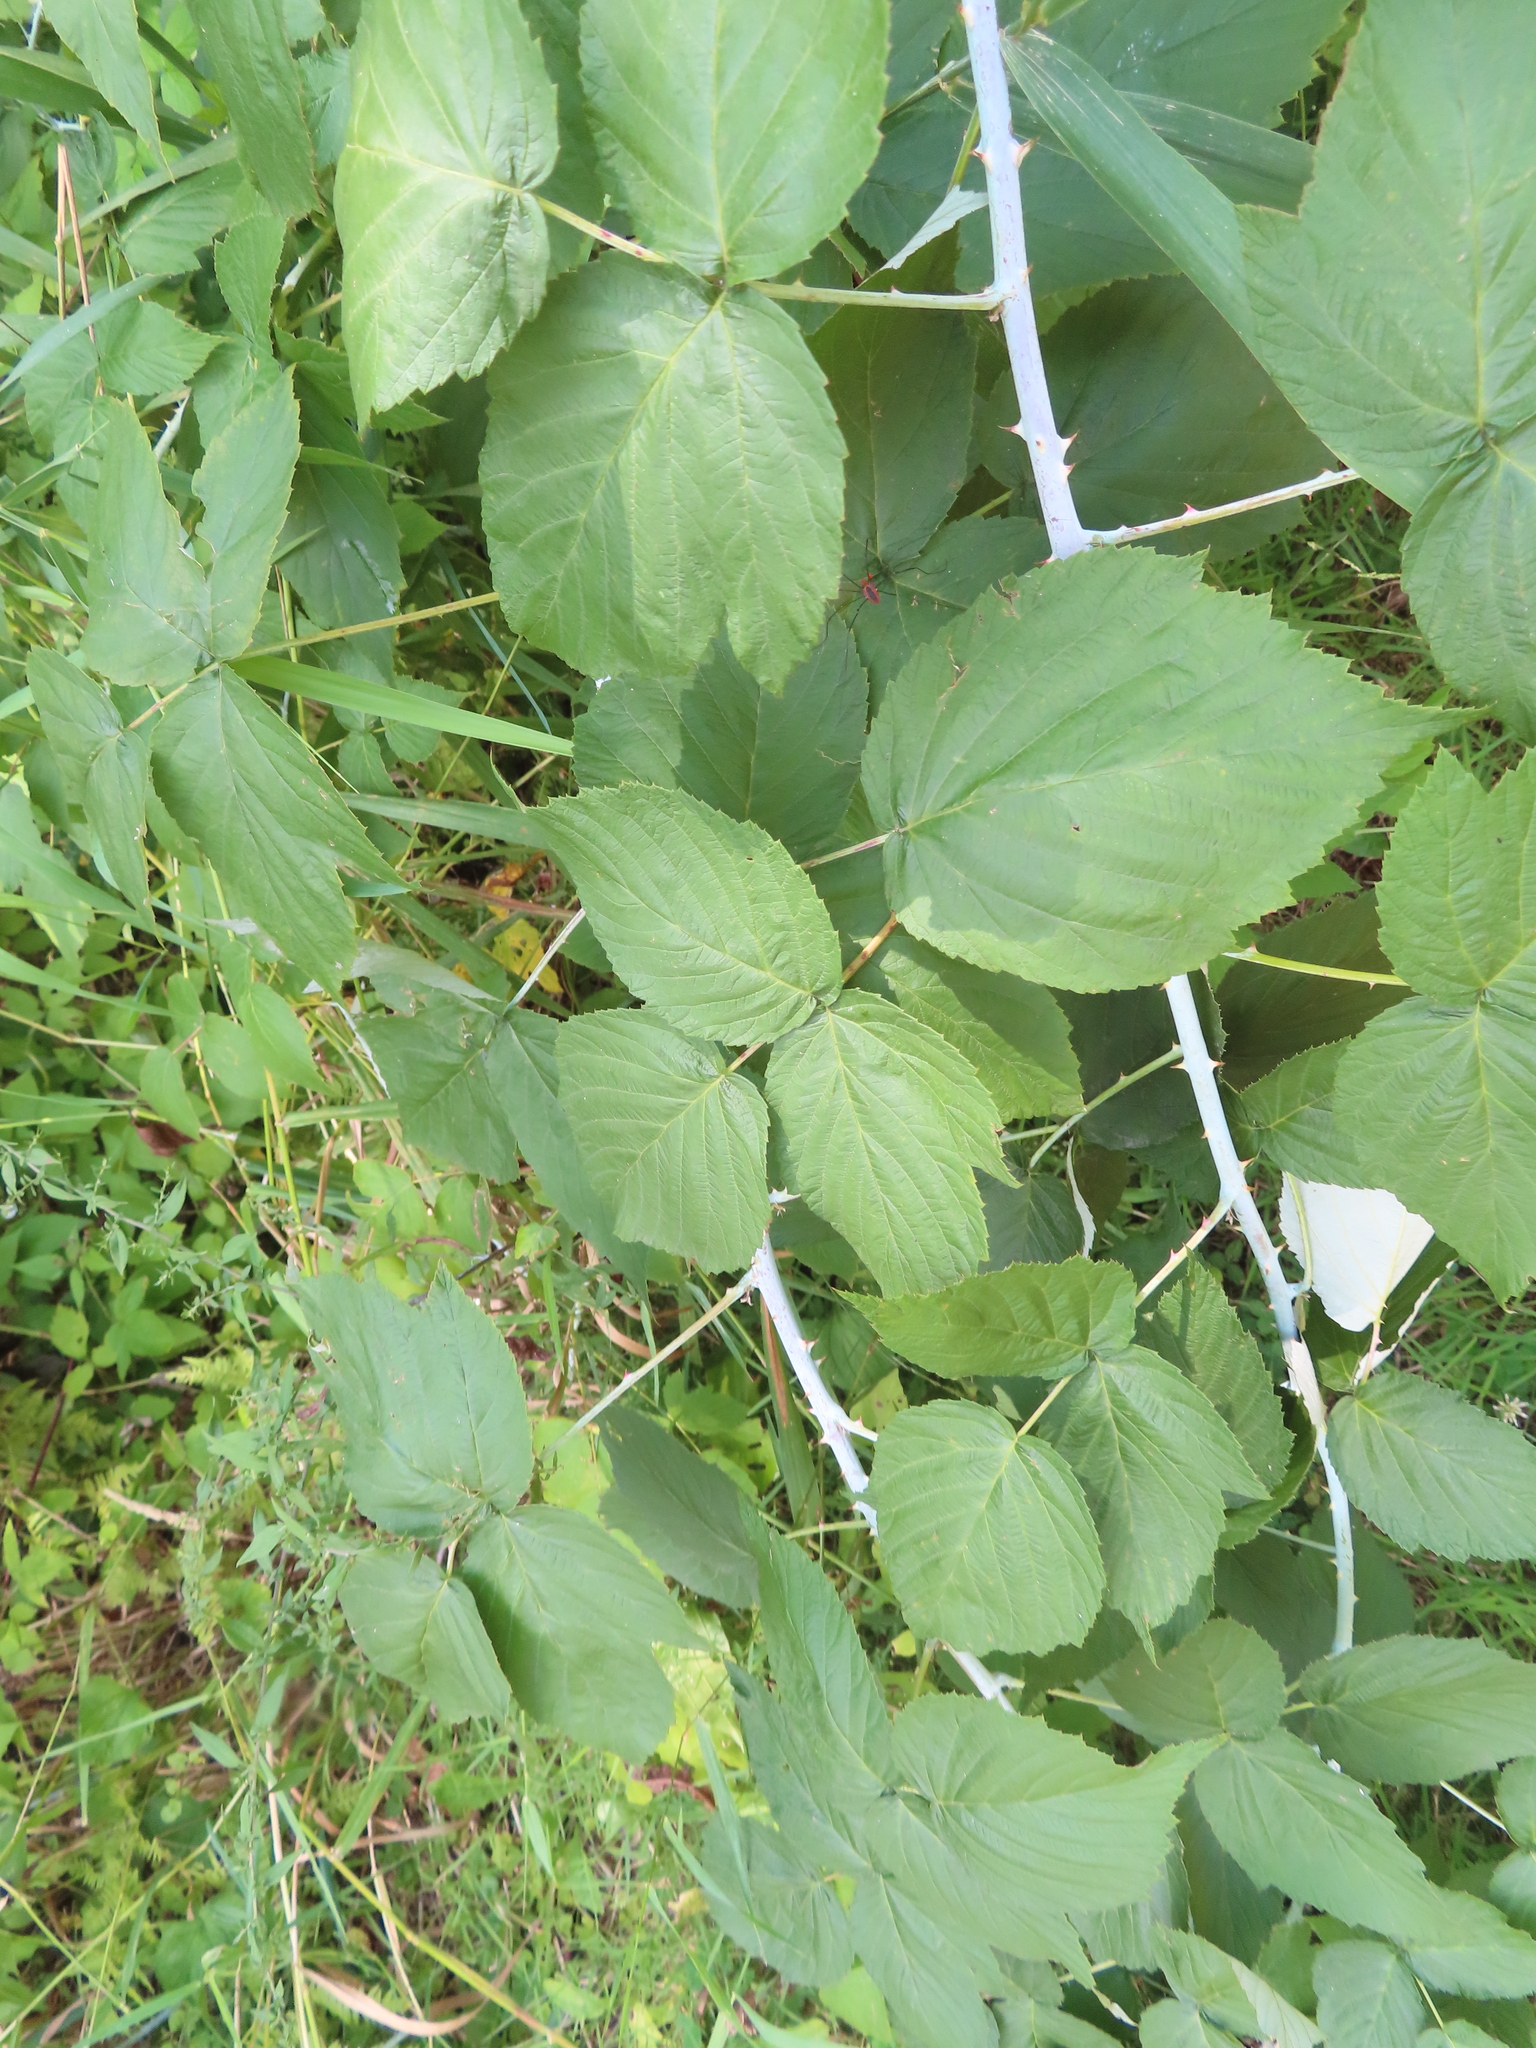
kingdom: Plantae
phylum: Tracheophyta
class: Magnoliopsida
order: Rosales
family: Rosaceae
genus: Rubus
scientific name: Rubus occidentalis
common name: Black raspberry
